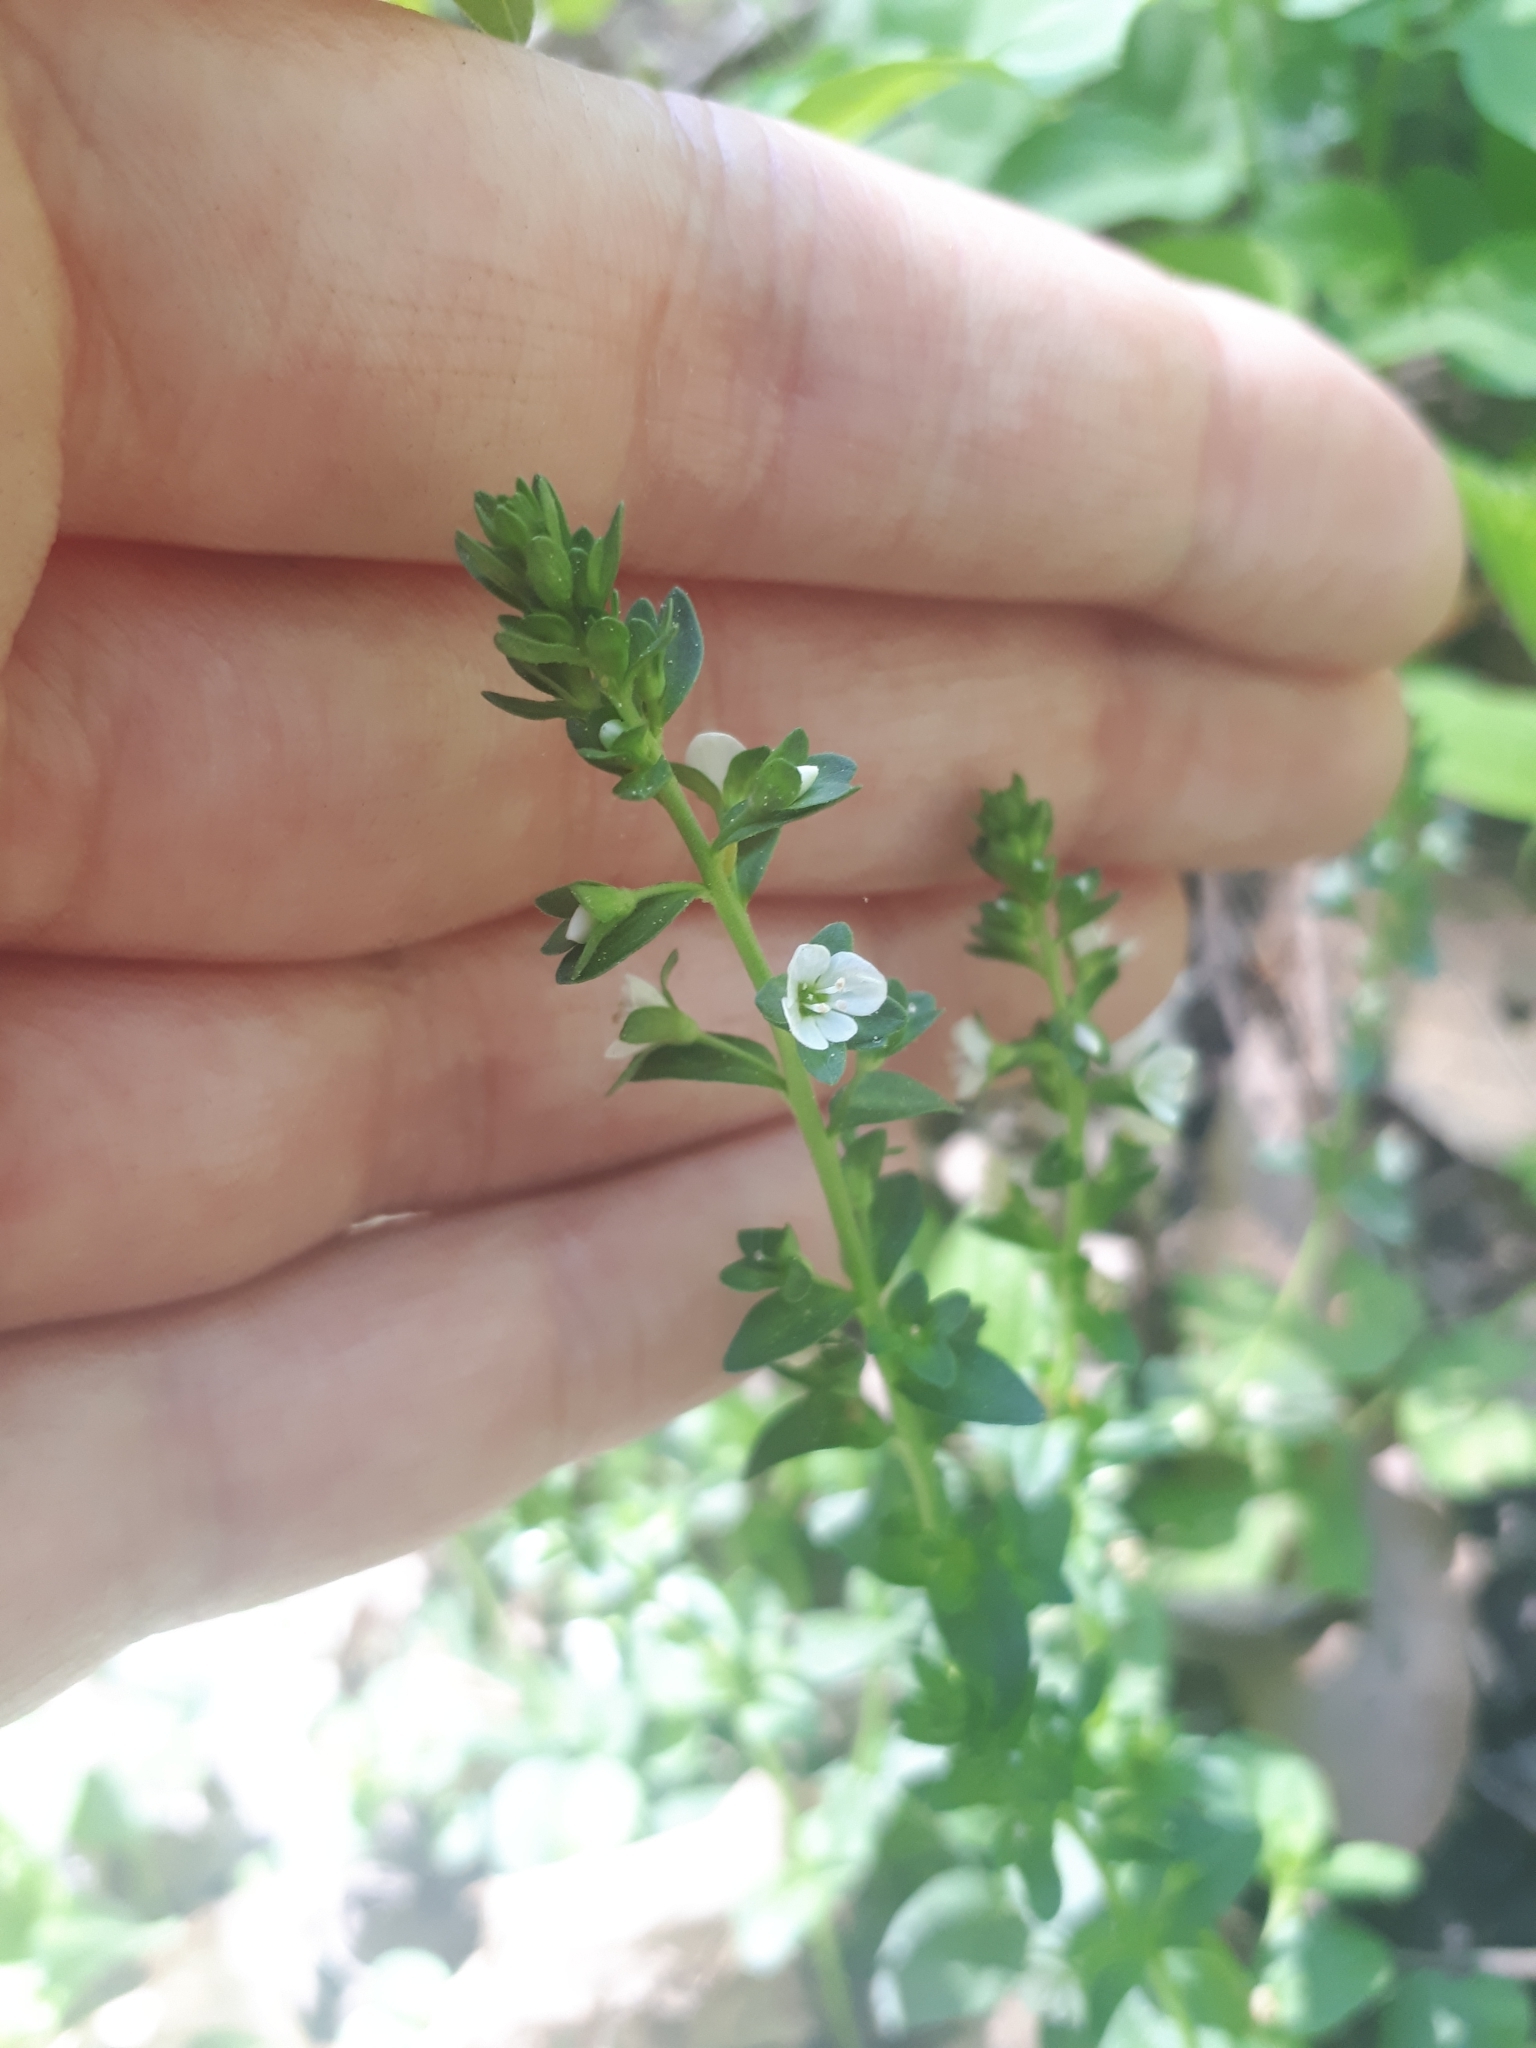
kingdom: Plantae
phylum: Tracheophyta
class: Magnoliopsida
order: Lamiales
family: Plantaginaceae
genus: Veronica
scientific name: Veronica serpyllifolia
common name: Thyme-leaved speedwell
